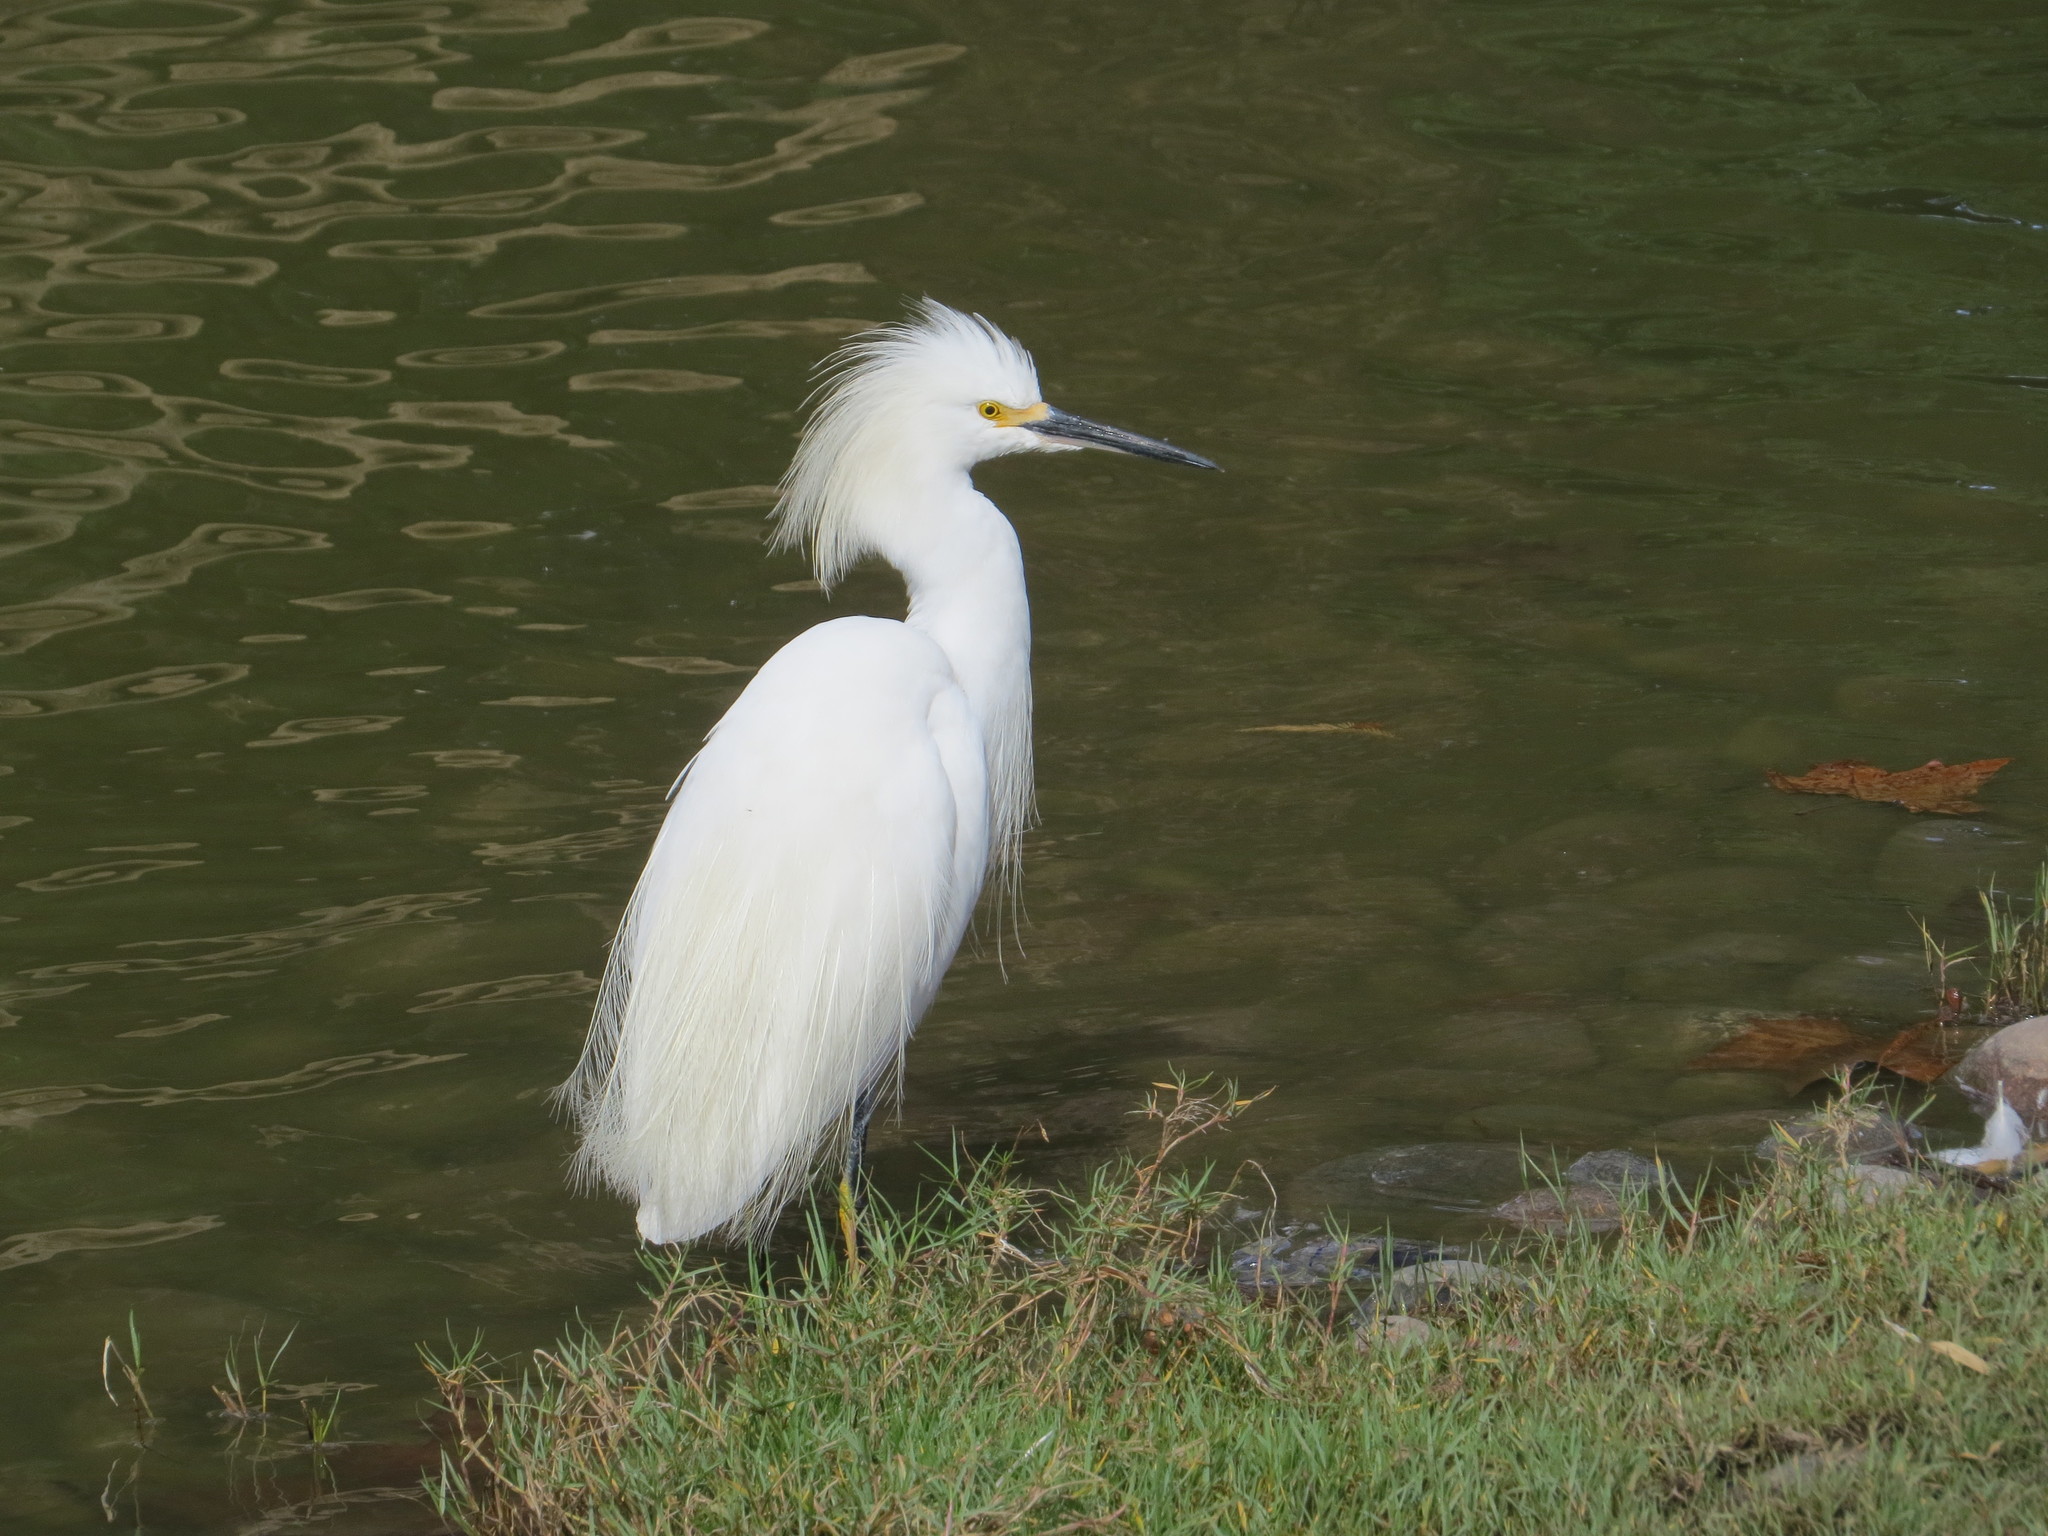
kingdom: Animalia
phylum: Chordata
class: Aves
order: Pelecaniformes
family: Ardeidae
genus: Egretta
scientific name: Egretta thula
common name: Snowy egret
